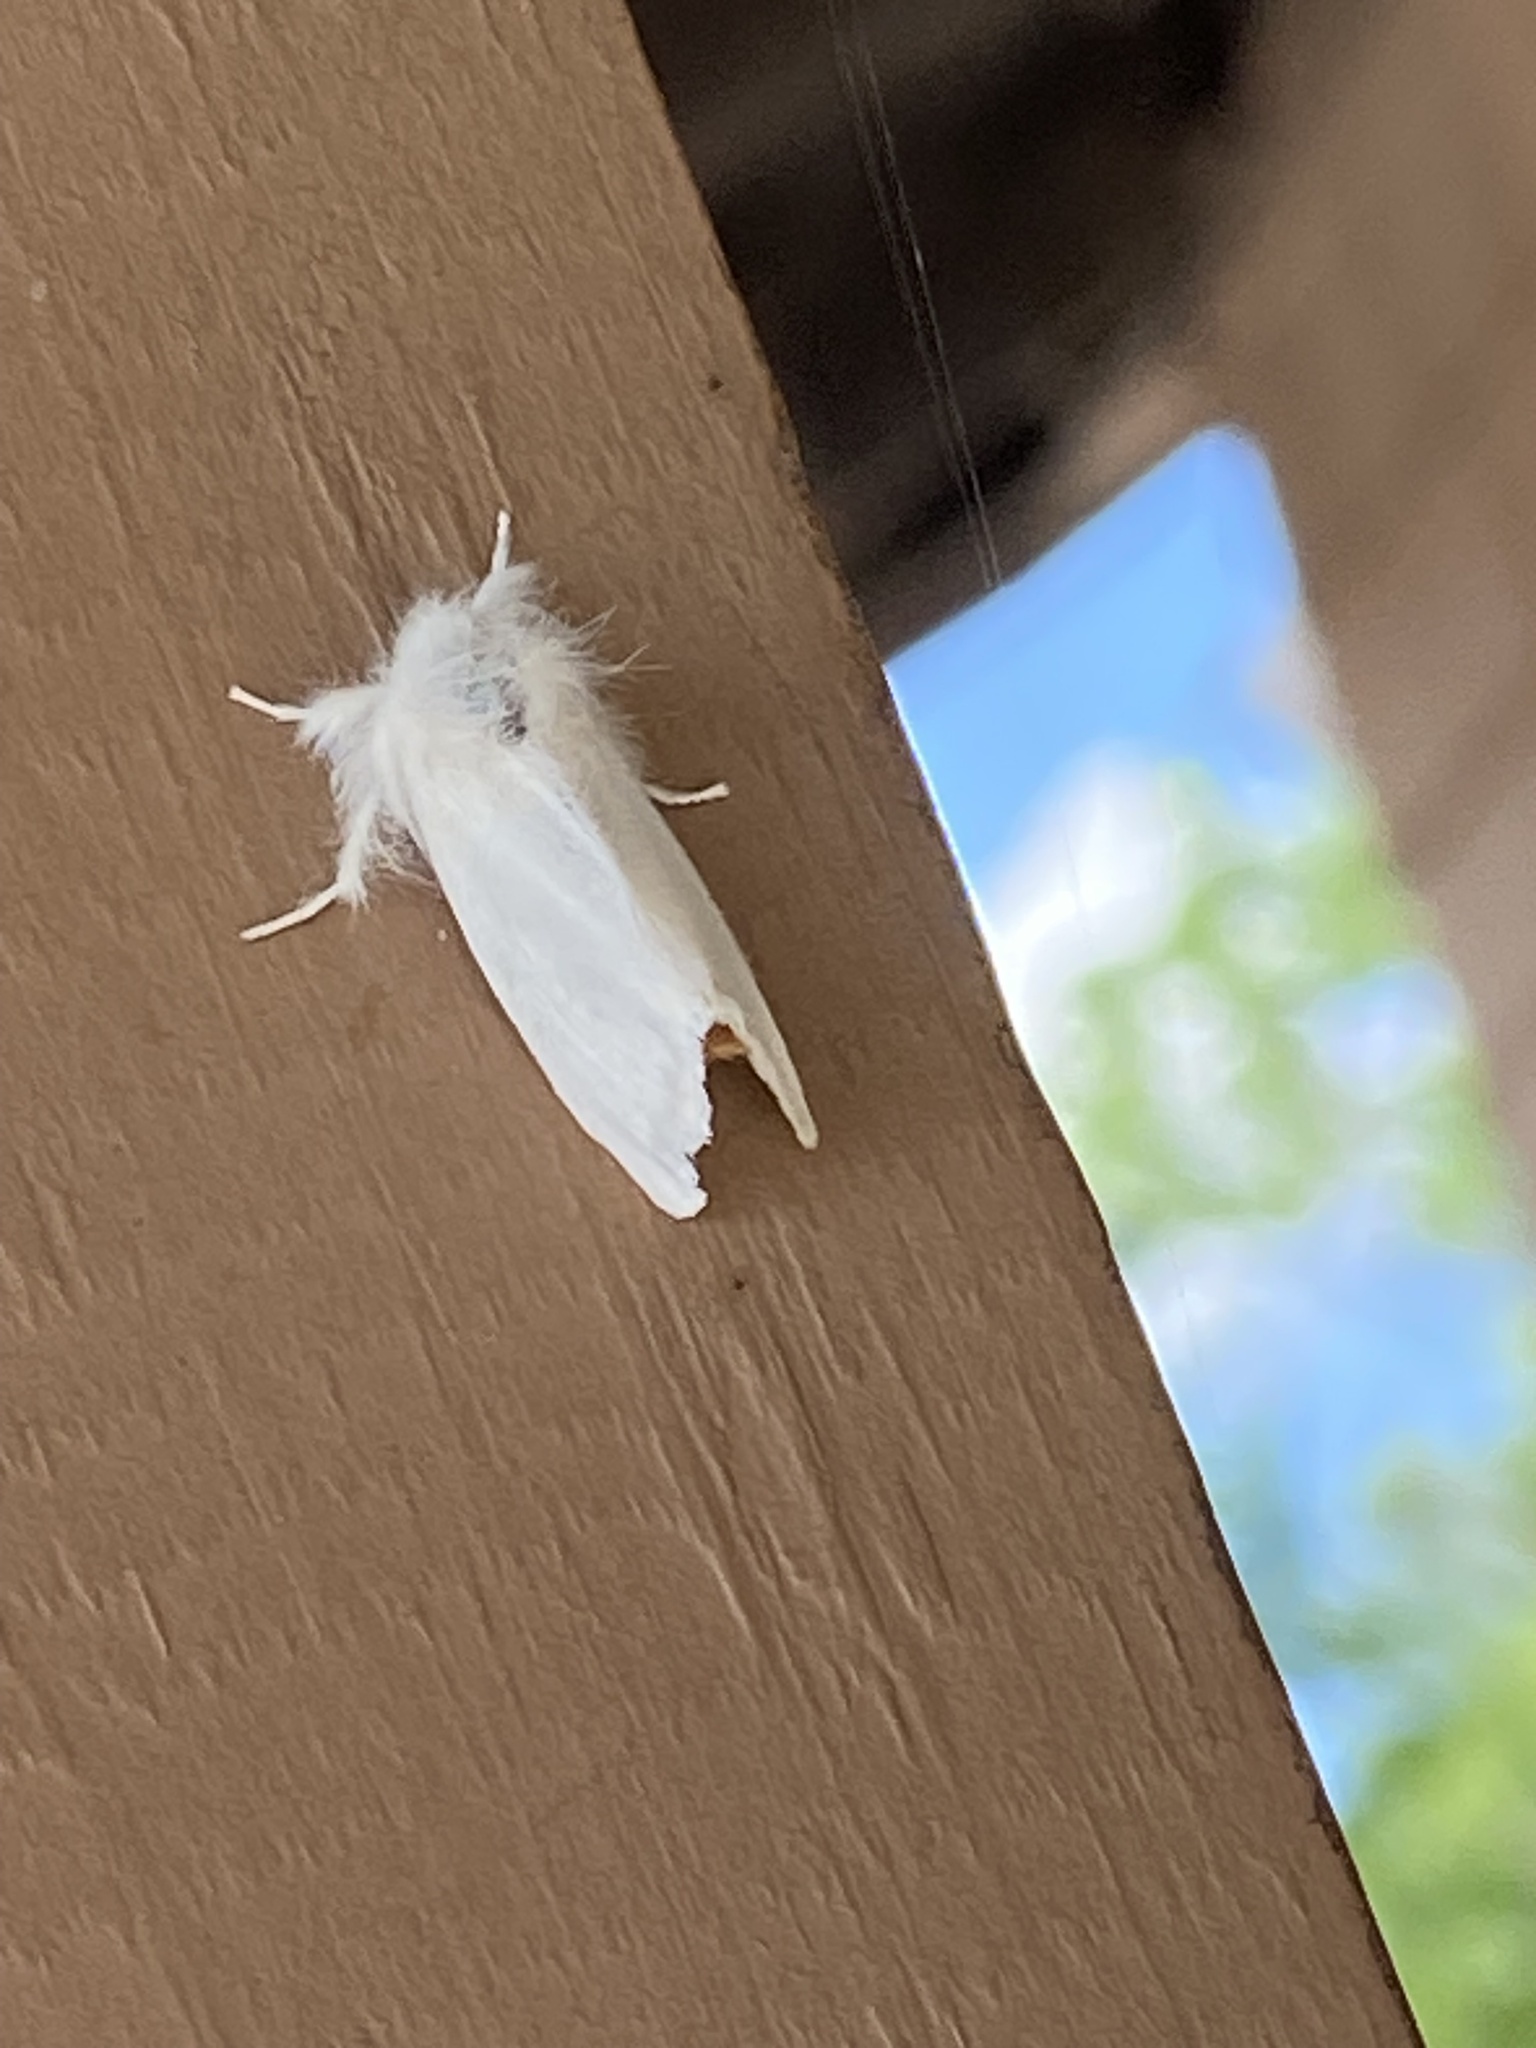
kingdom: Animalia
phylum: Arthropoda
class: Insecta
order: Lepidoptera
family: Erebidae
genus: Euproctis
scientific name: Euproctis chrysorrhoea
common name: Brown-tail
